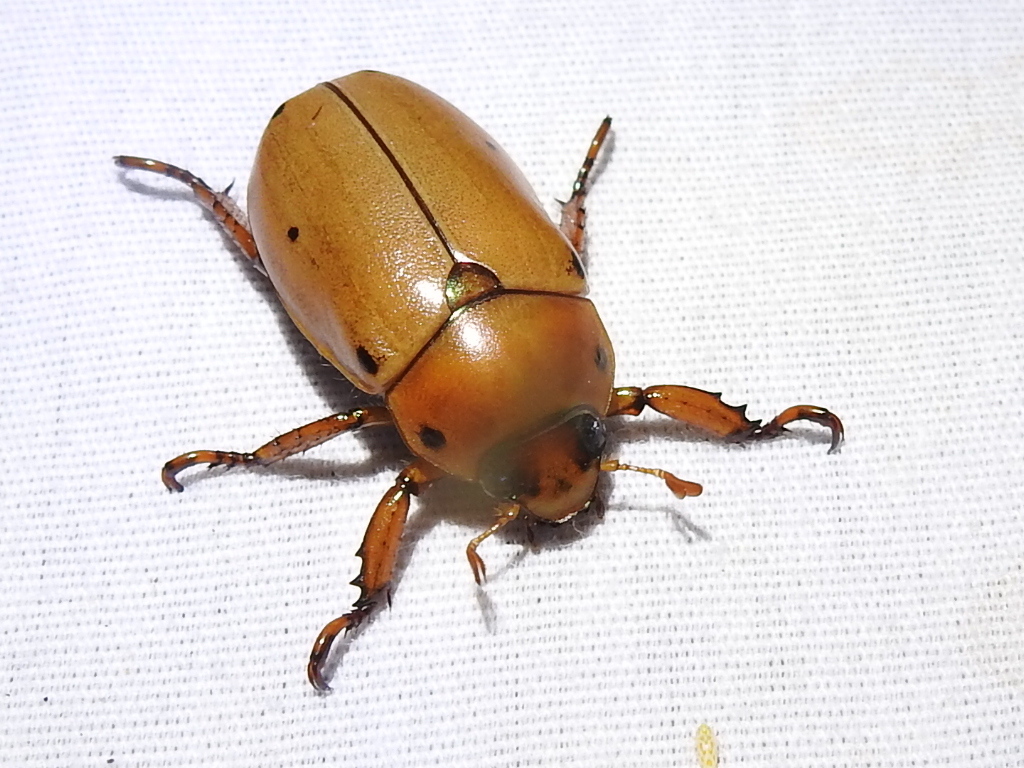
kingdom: Animalia
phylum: Arthropoda
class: Insecta
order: Coleoptera
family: Scarabaeidae
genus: Pelidnota
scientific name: Pelidnota punctata
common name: Grapevine beetle
